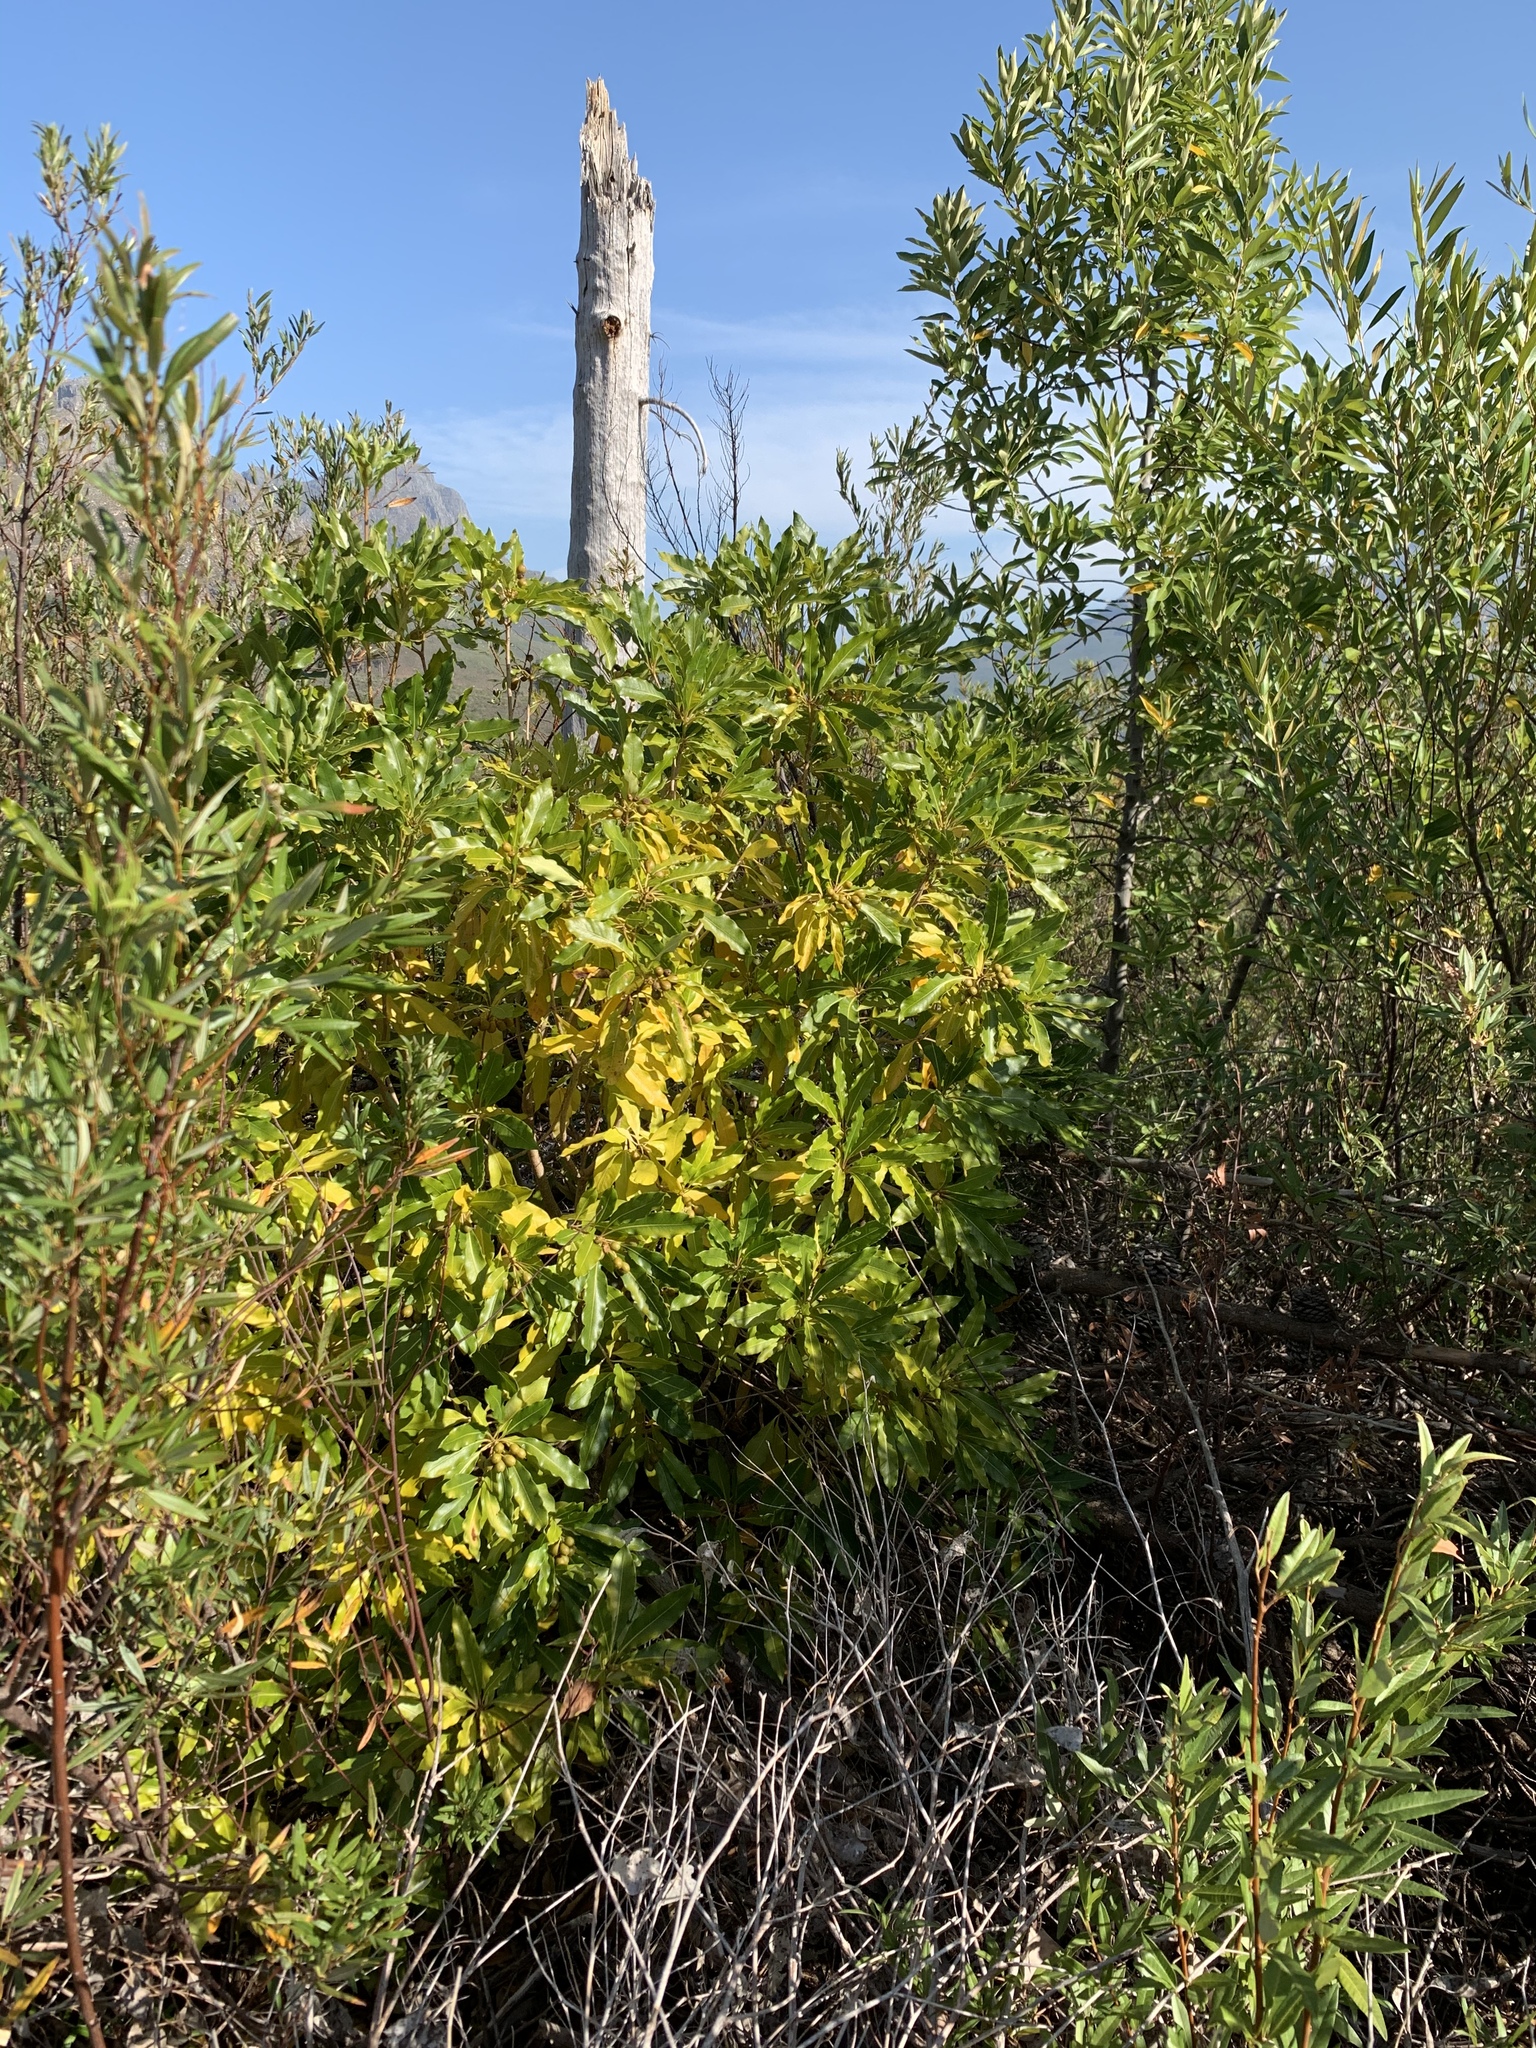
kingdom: Plantae
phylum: Tracheophyta
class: Magnoliopsida
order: Apiales
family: Pittosporaceae
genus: Pittosporum
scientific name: Pittosporum undulatum
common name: Australian cheesewood
